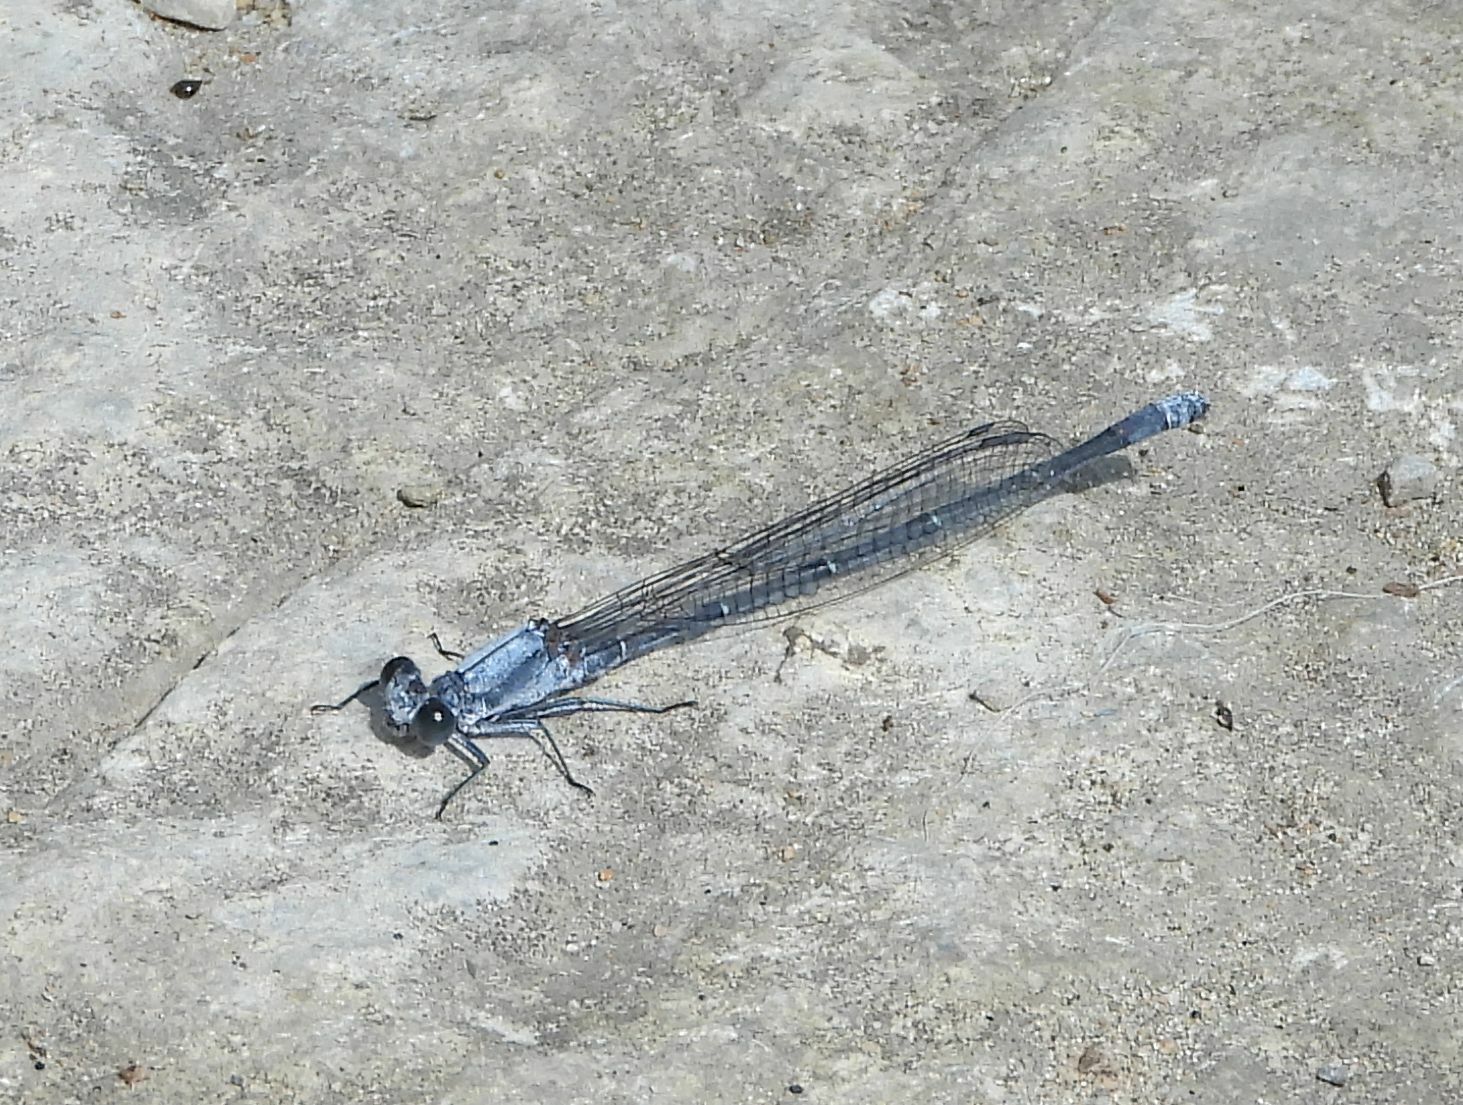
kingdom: Animalia
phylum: Arthropoda
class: Insecta
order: Odonata
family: Coenagrionidae
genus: Argia
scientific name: Argia moesta
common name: Powdered dancer
